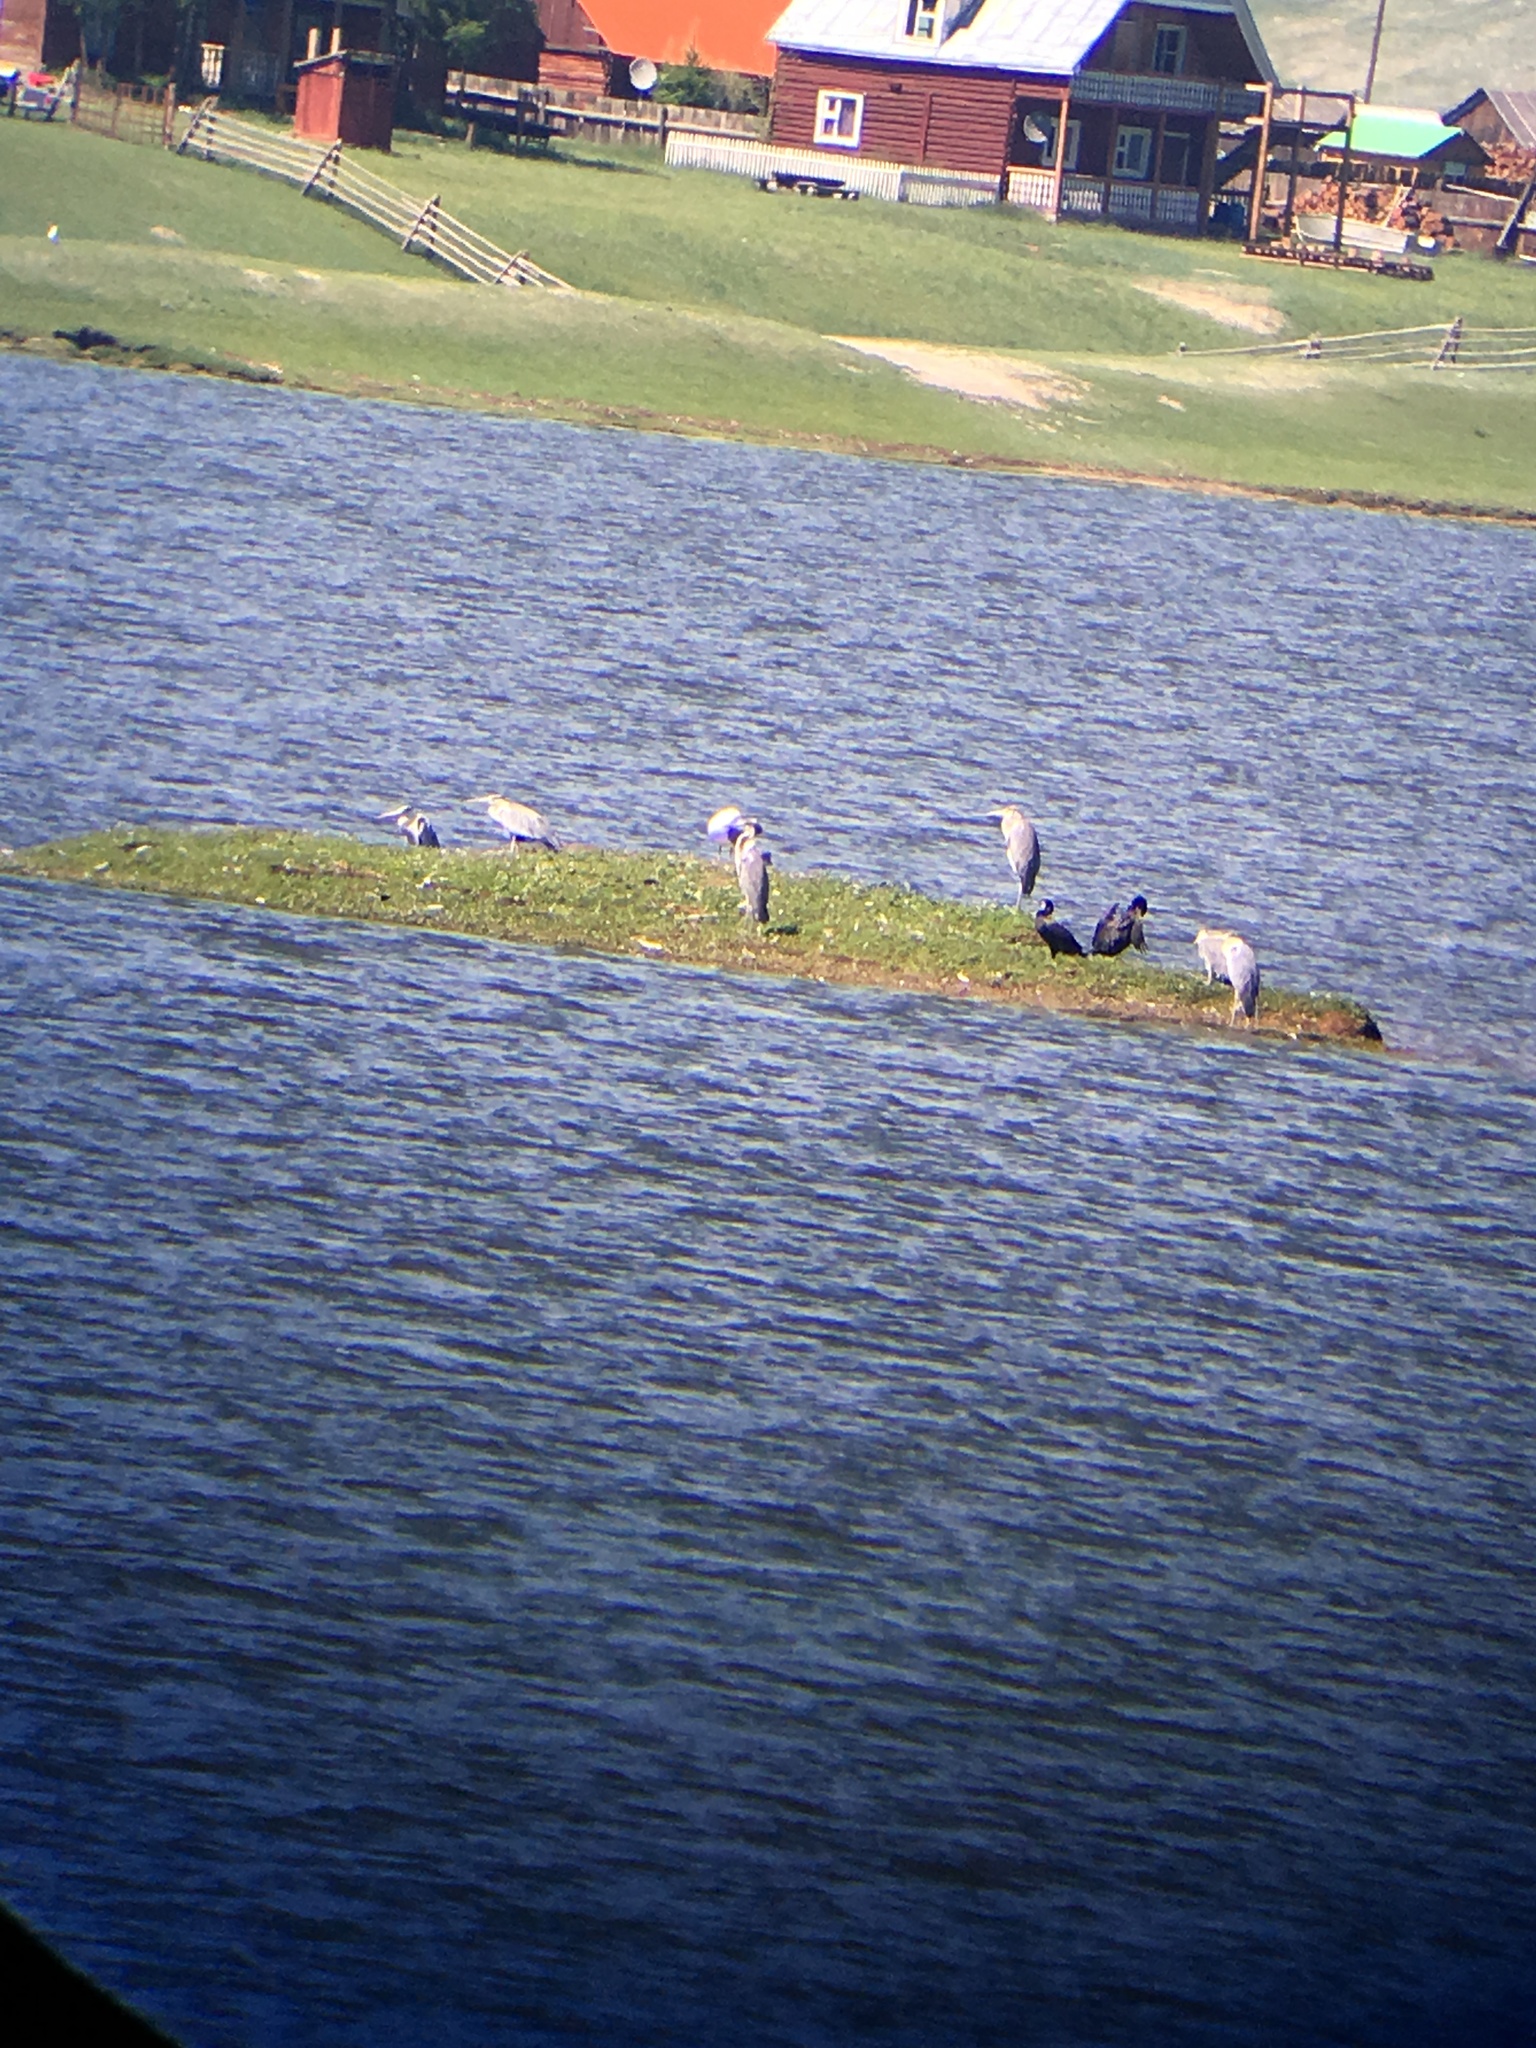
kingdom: Animalia
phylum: Chordata
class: Aves
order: Pelecaniformes
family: Ardeidae
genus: Ardea
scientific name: Ardea cinerea
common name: Grey heron
